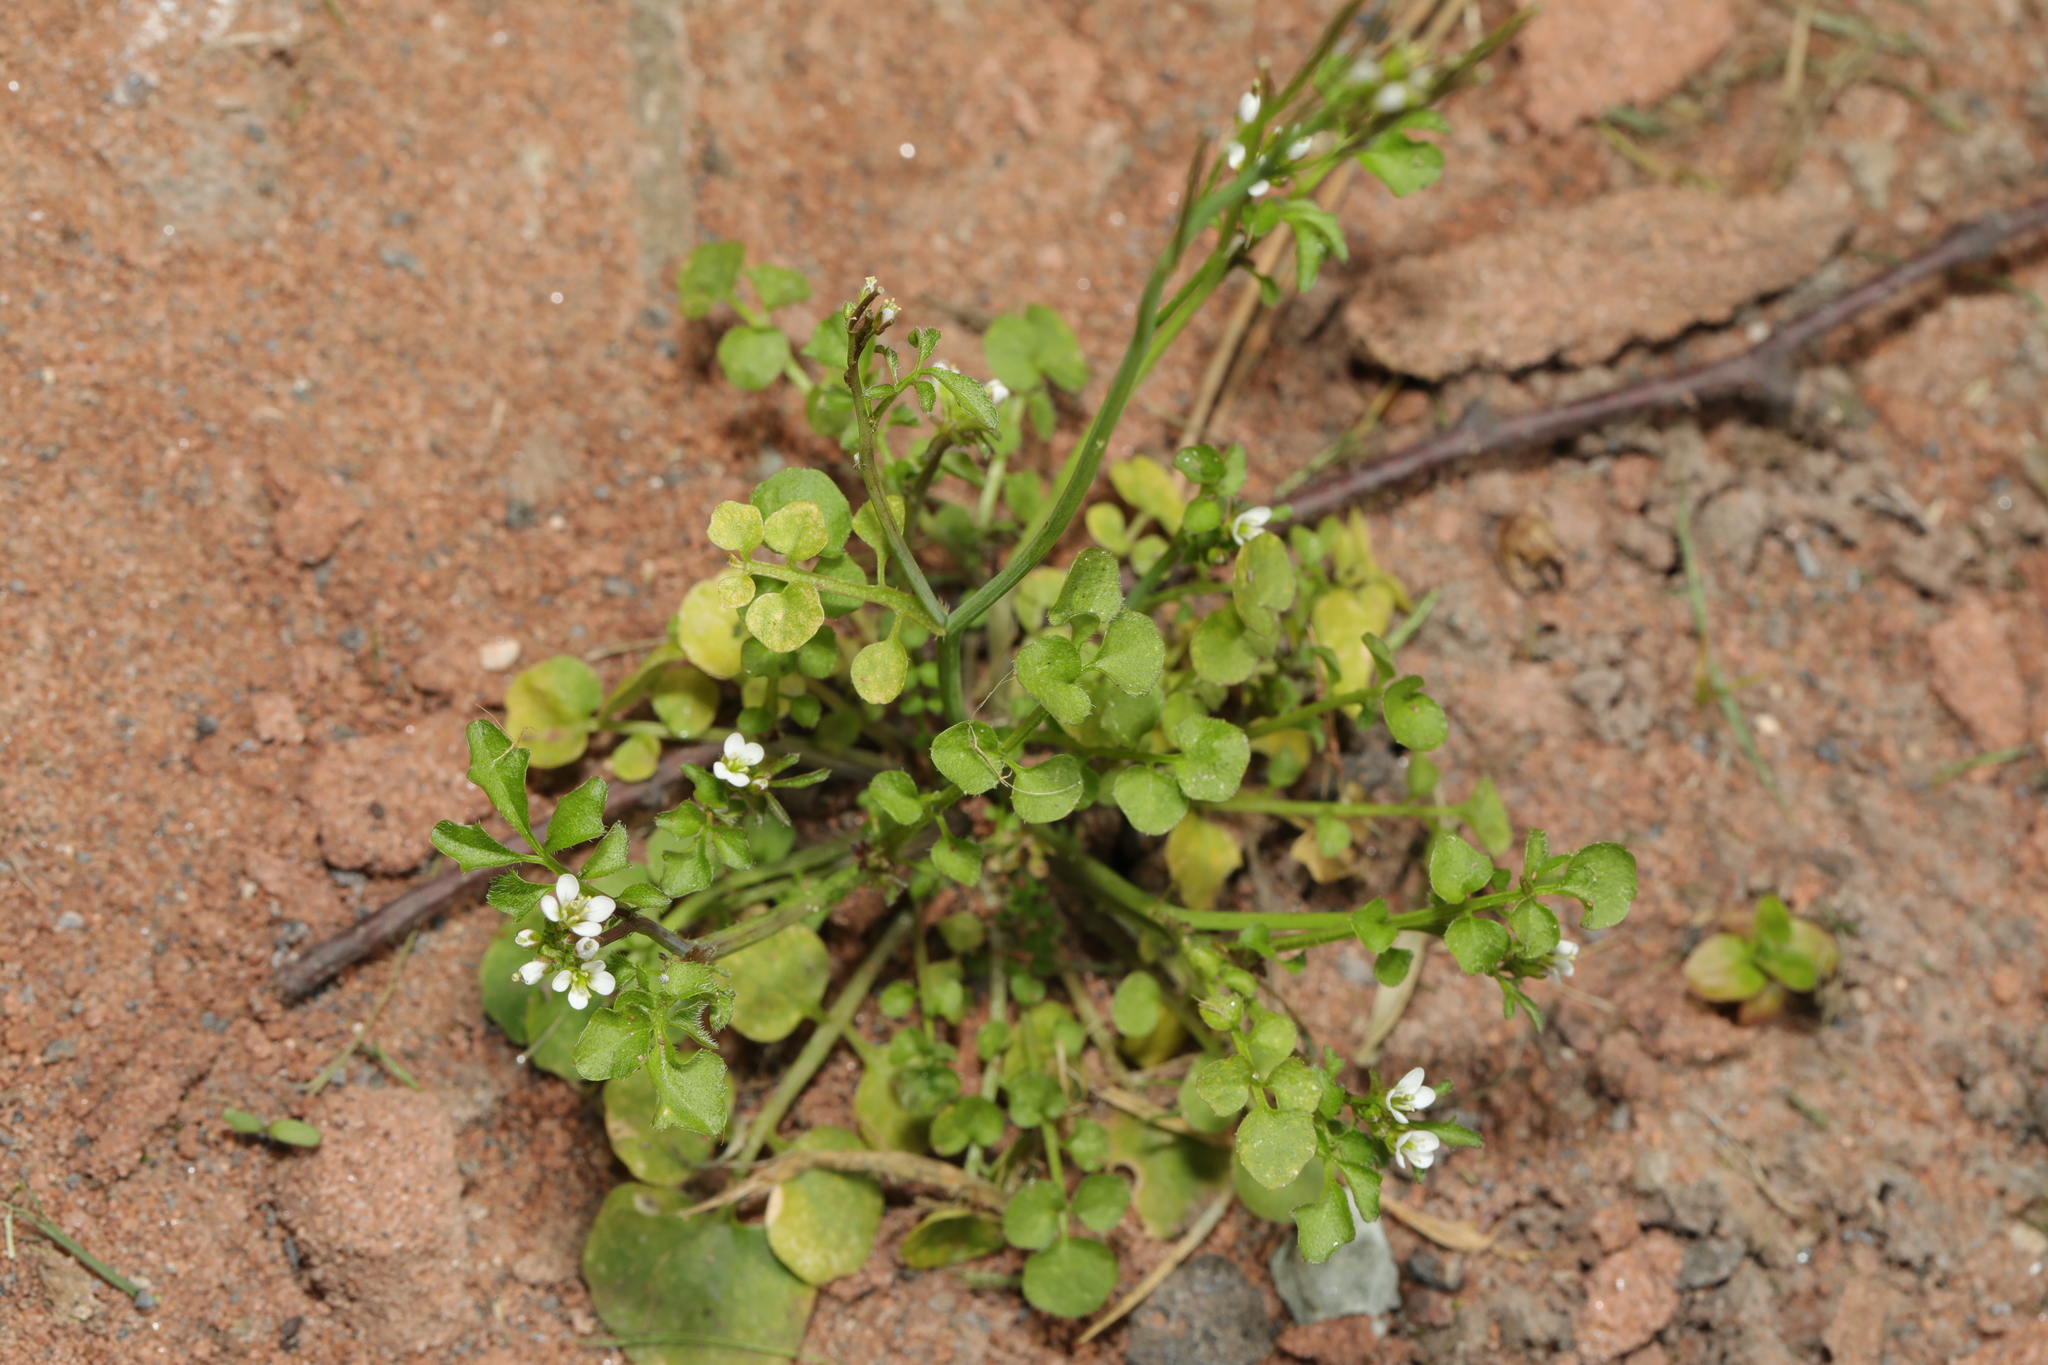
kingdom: Plantae
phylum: Tracheophyta
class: Magnoliopsida
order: Brassicales
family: Brassicaceae
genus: Cardamine
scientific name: Cardamine hirsuta
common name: Hairy bittercress
